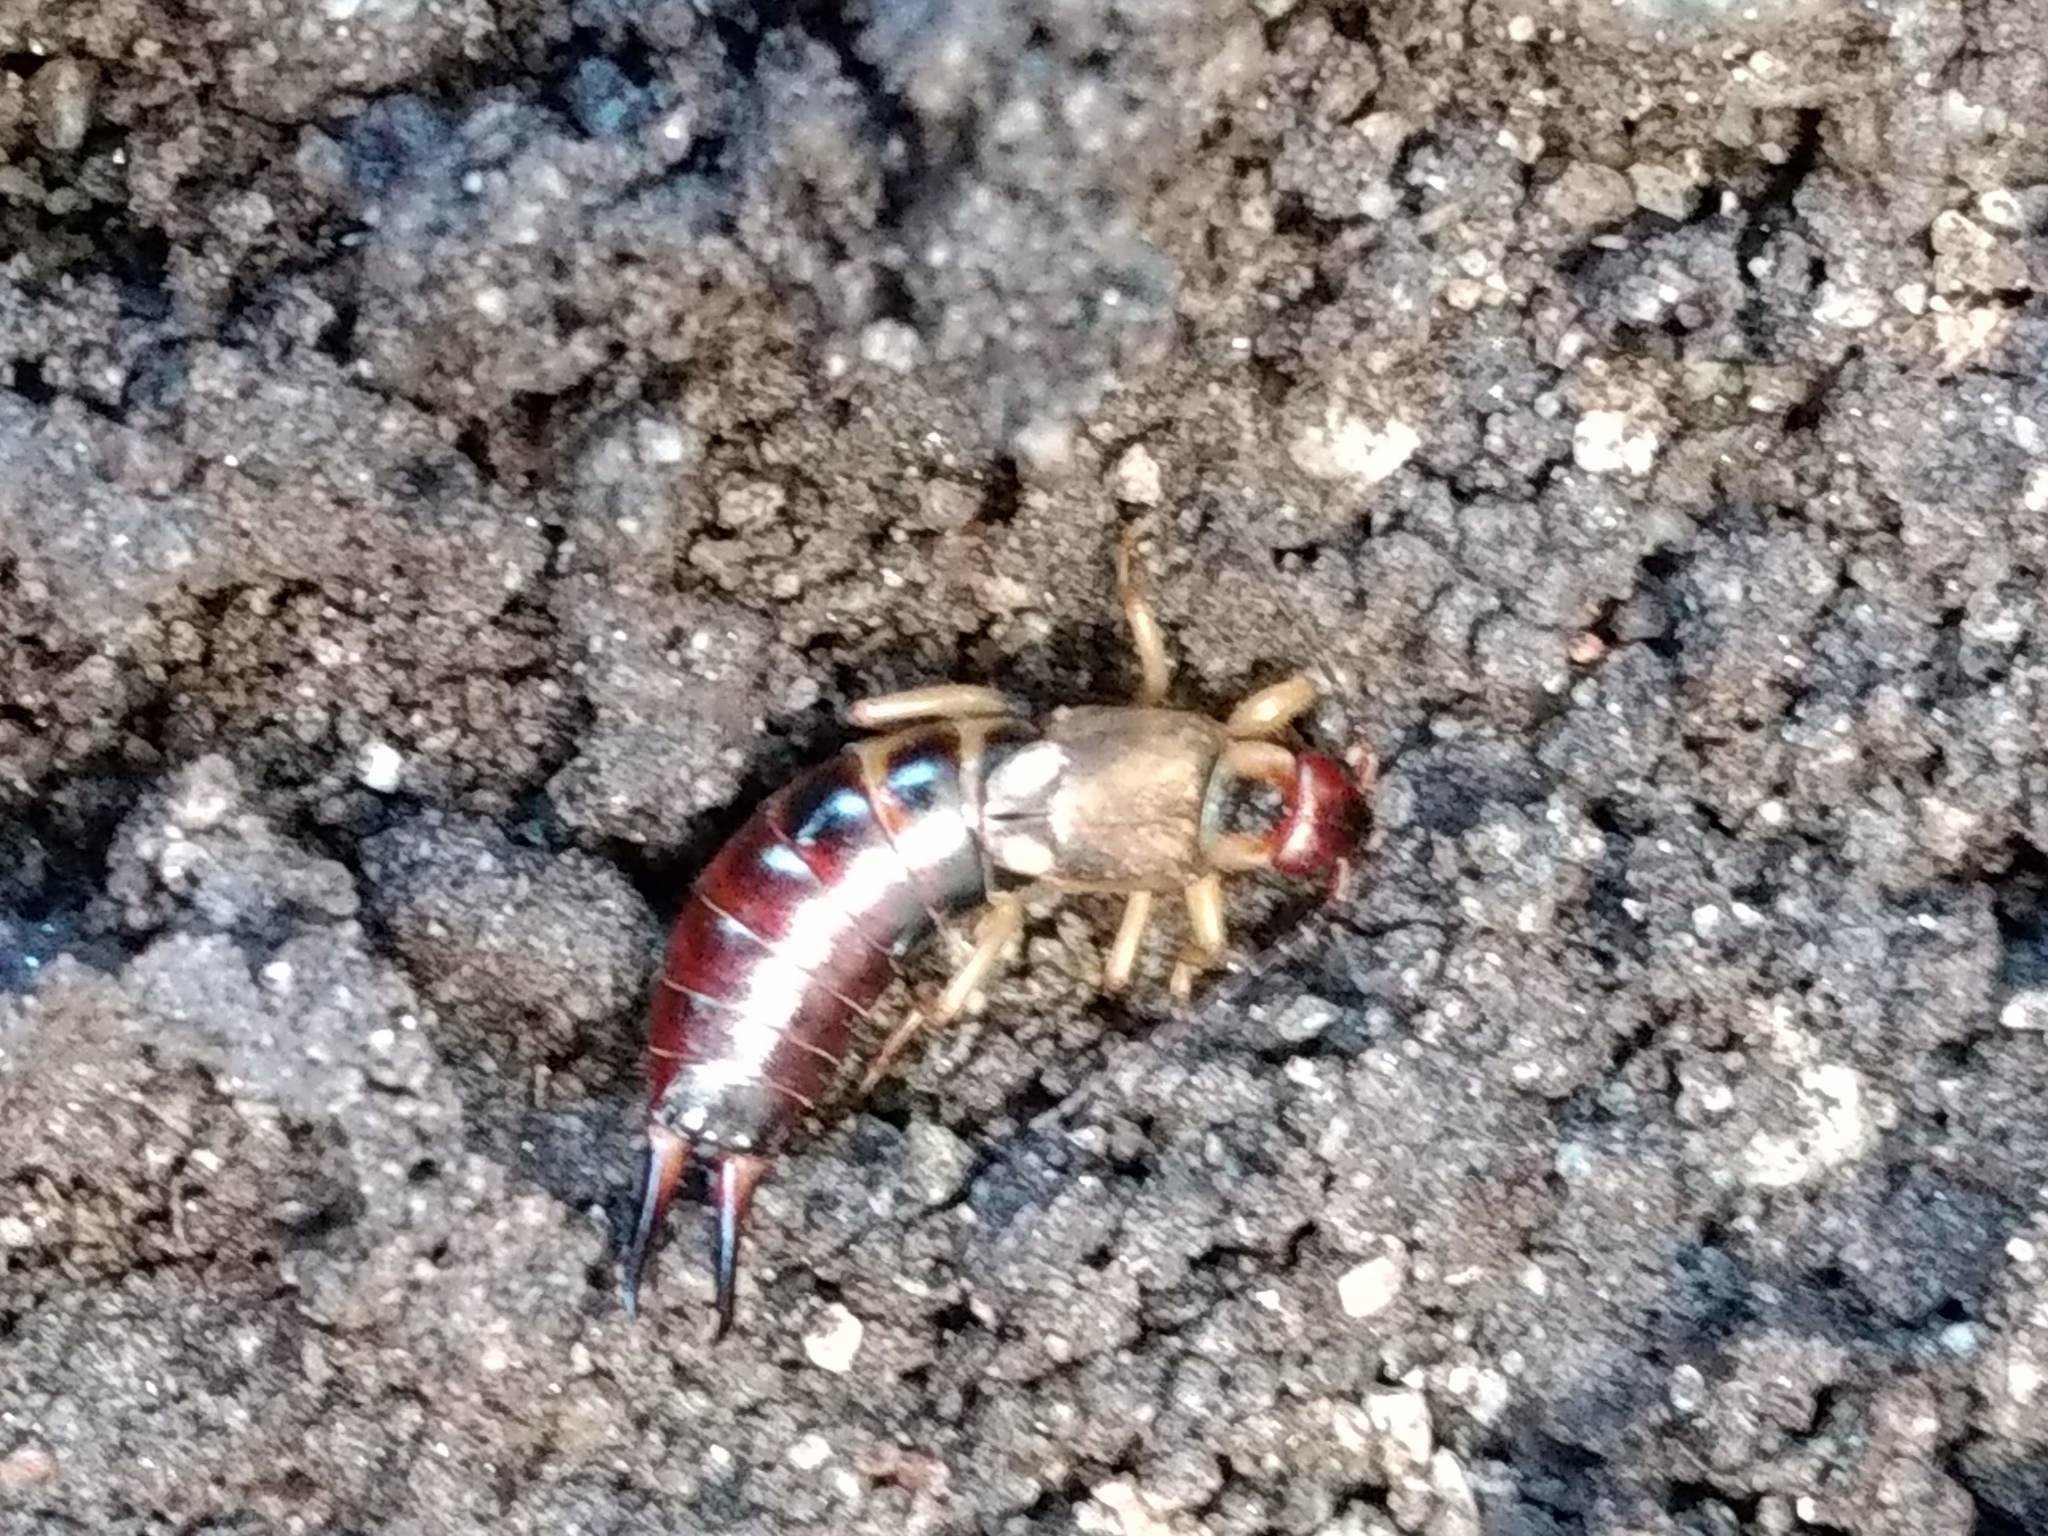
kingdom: Animalia
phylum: Arthropoda
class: Insecta
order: Dermaptera
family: Forficulidae
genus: Forficula
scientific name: Forficula
